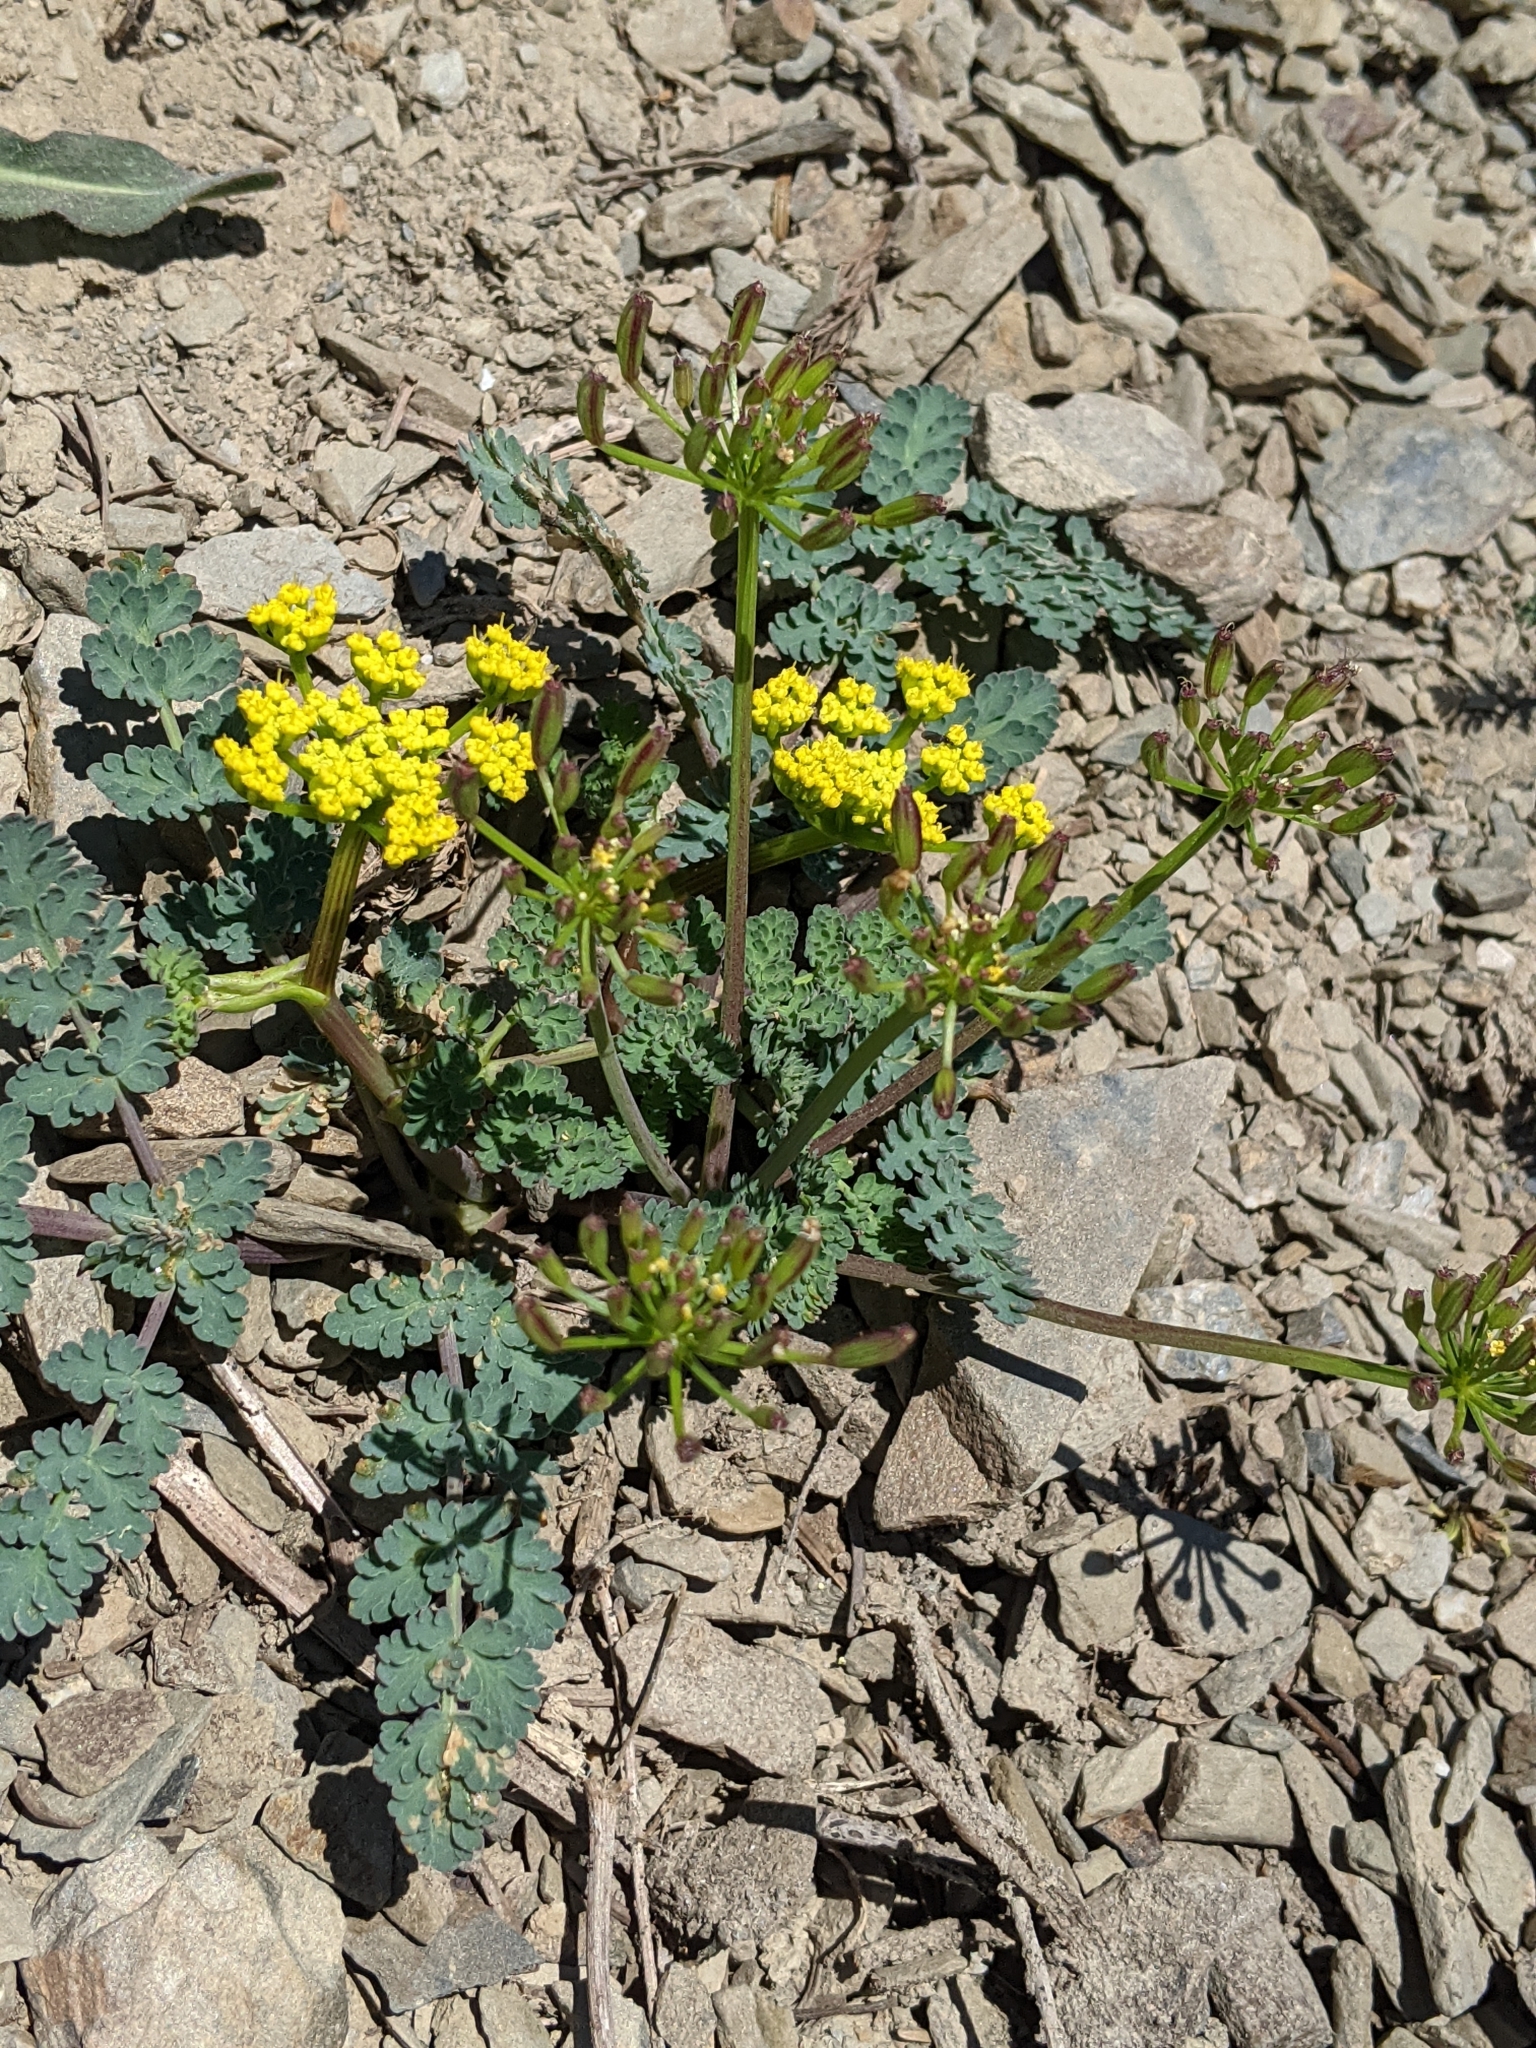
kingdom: Plantae
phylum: Tracheophyta
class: Magnoliopsida
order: Apiales
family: Apiaceae
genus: Lomatium
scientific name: Lomatium martindalei
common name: Cascade desert-parsley
